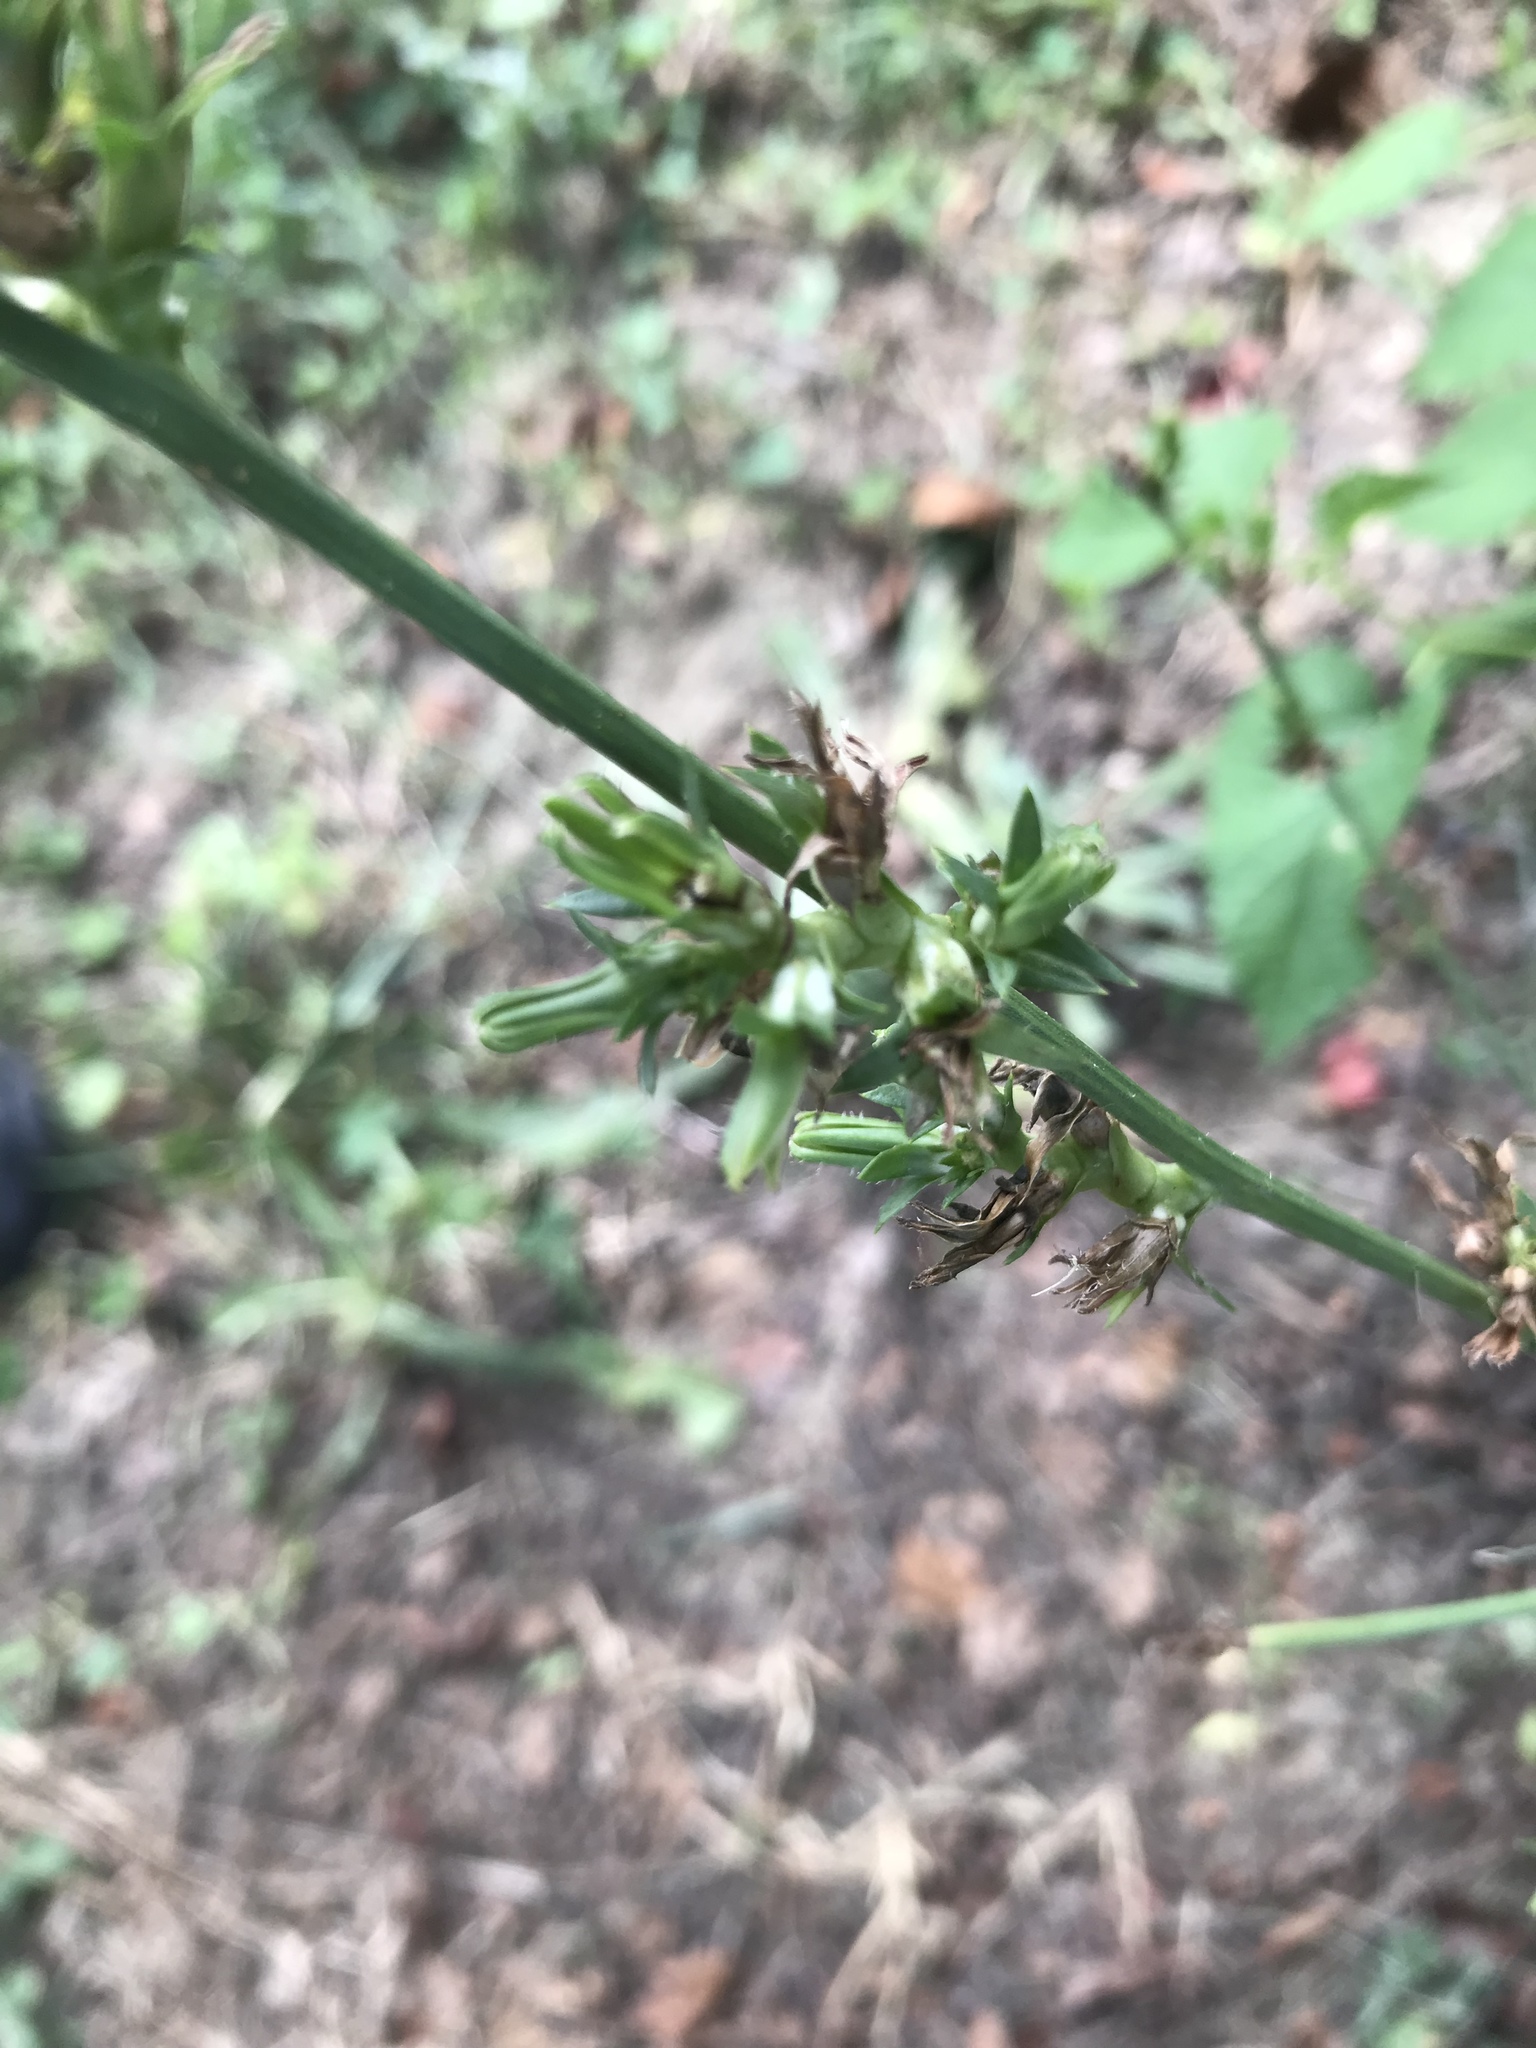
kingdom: Plantae
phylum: Tracheophyta
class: Magnoliopsida
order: Asterales
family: Asteraceae
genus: Cichorium
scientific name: Cichorium intybus
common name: Chicory
